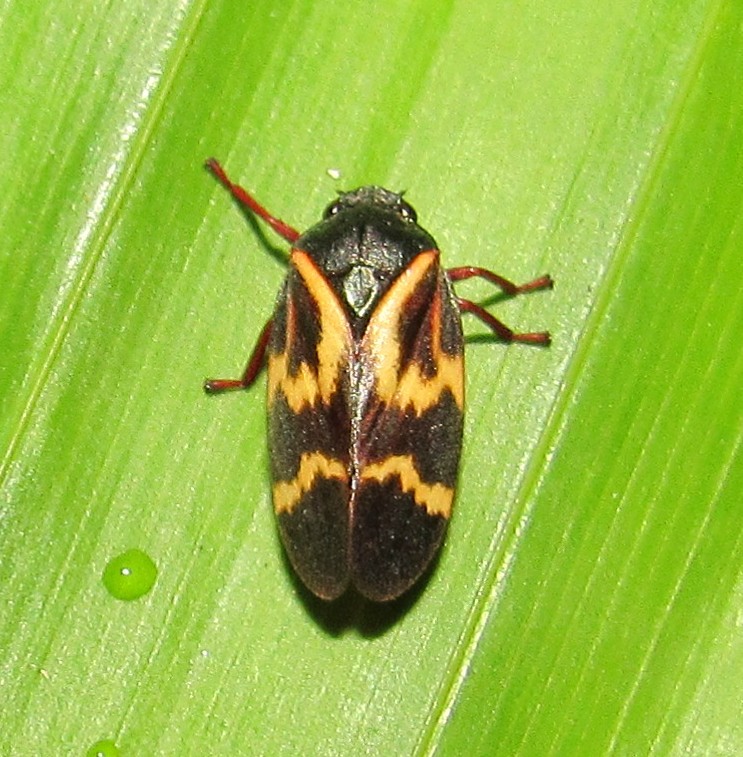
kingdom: Animalia
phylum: Arthropoda
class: Insecta
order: Hemiptera
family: Cercopidae
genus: Deois
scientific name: Deois flexuosa
